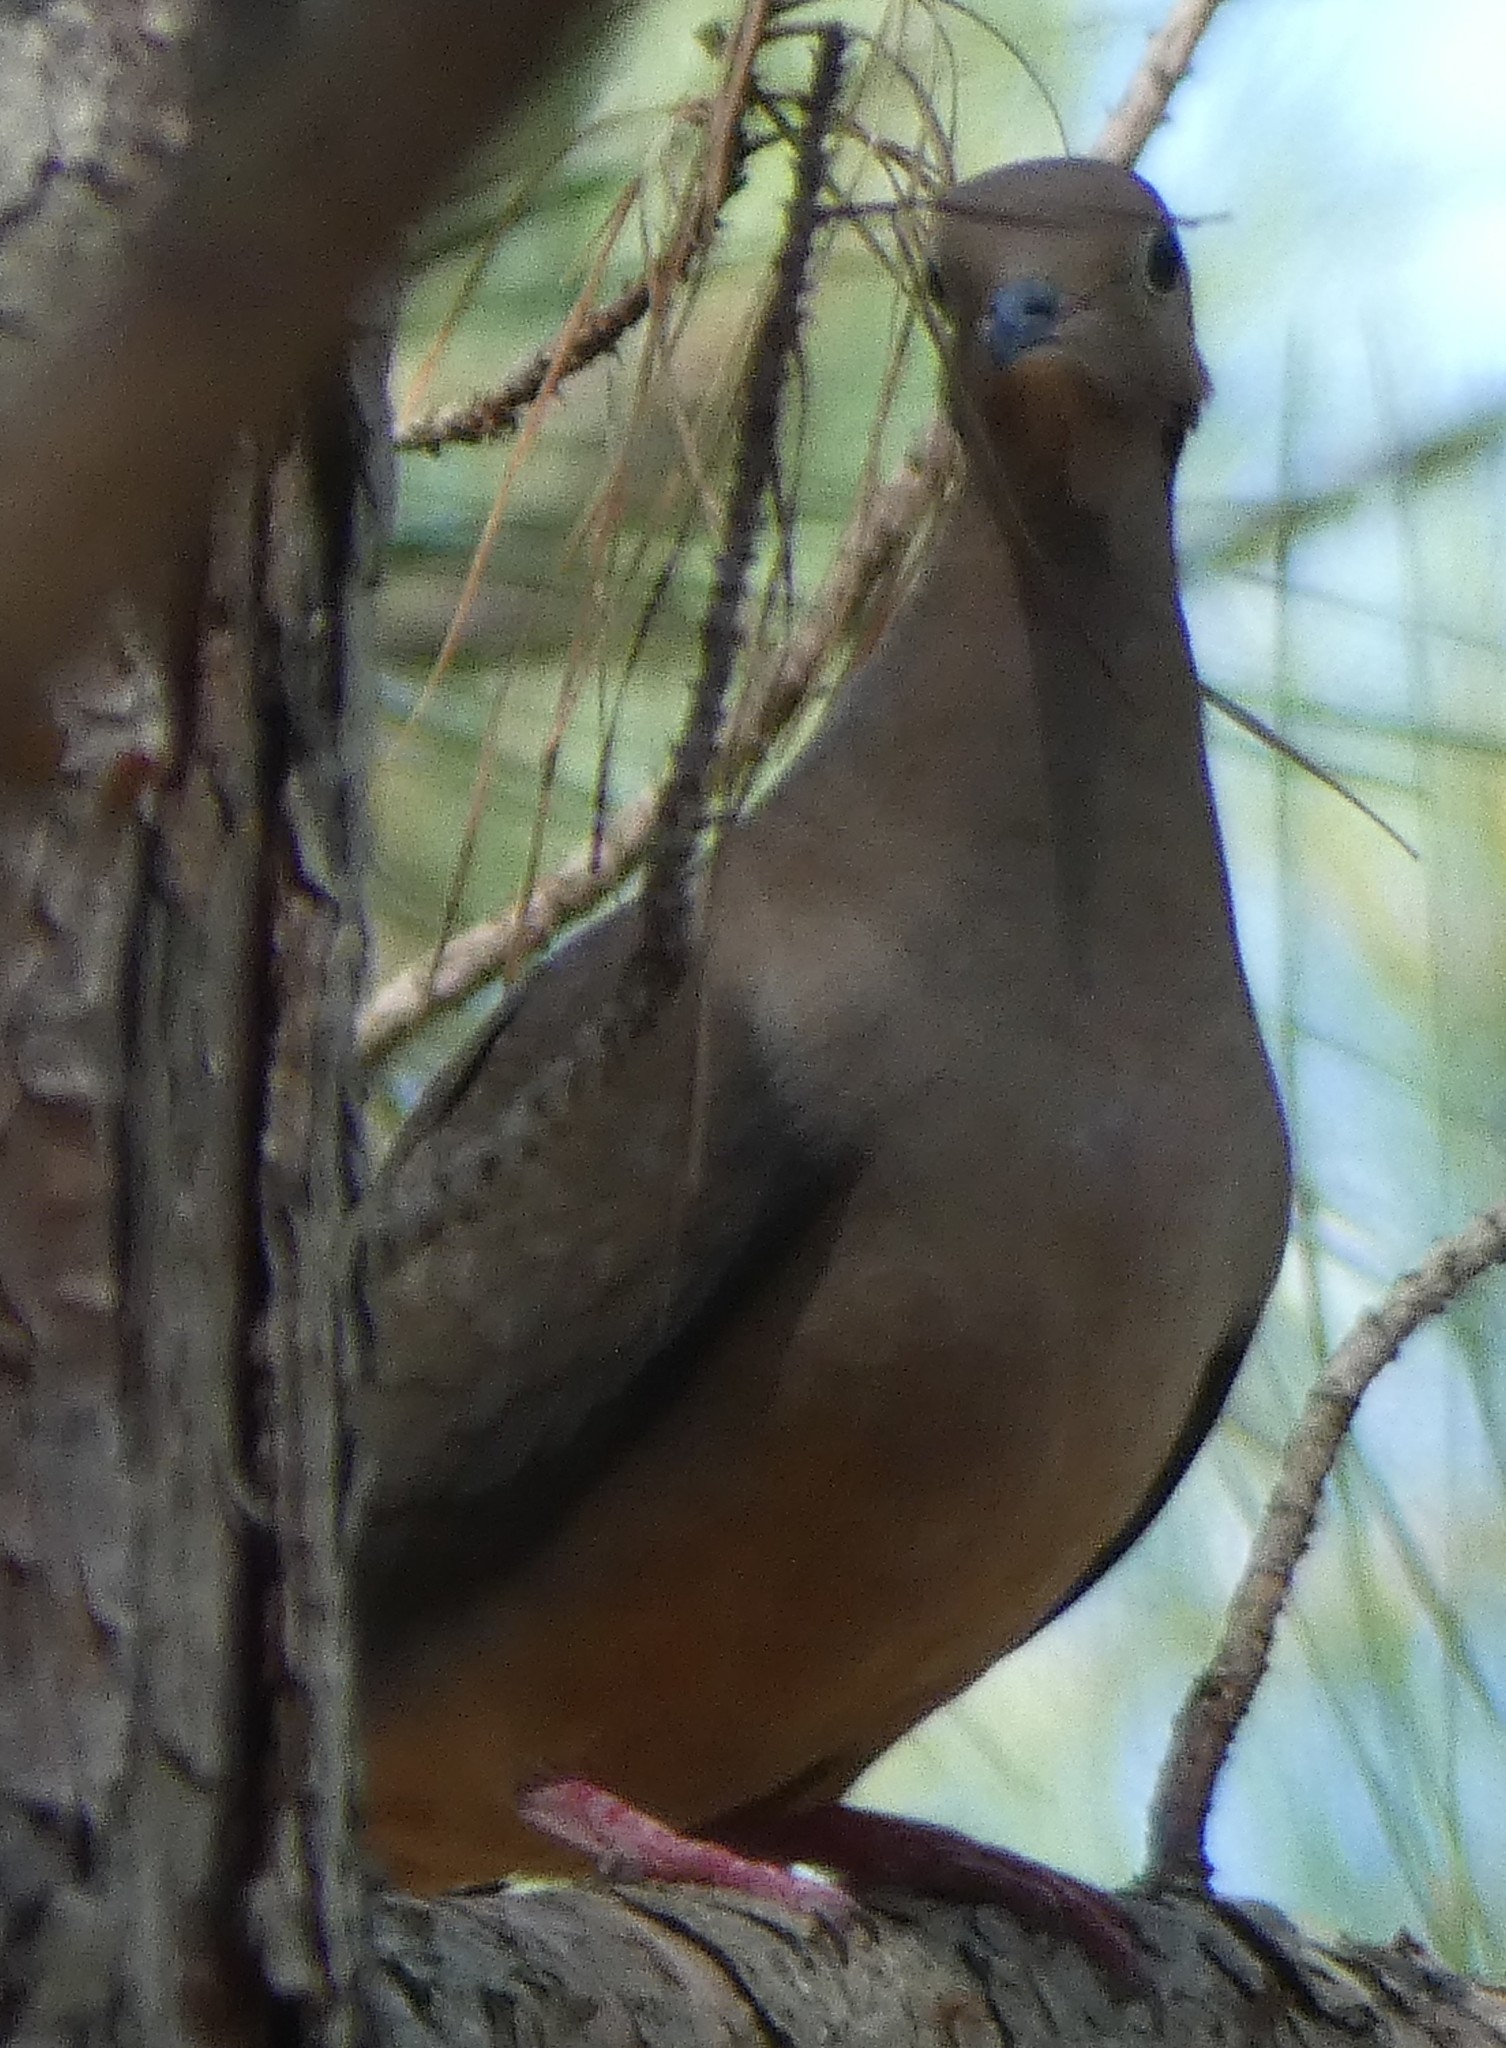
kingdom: Animalia
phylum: Chordata
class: Aves
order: Columbiformes
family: Columbidae
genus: Zenaida
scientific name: Zenaida macroura
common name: Mourning dove
